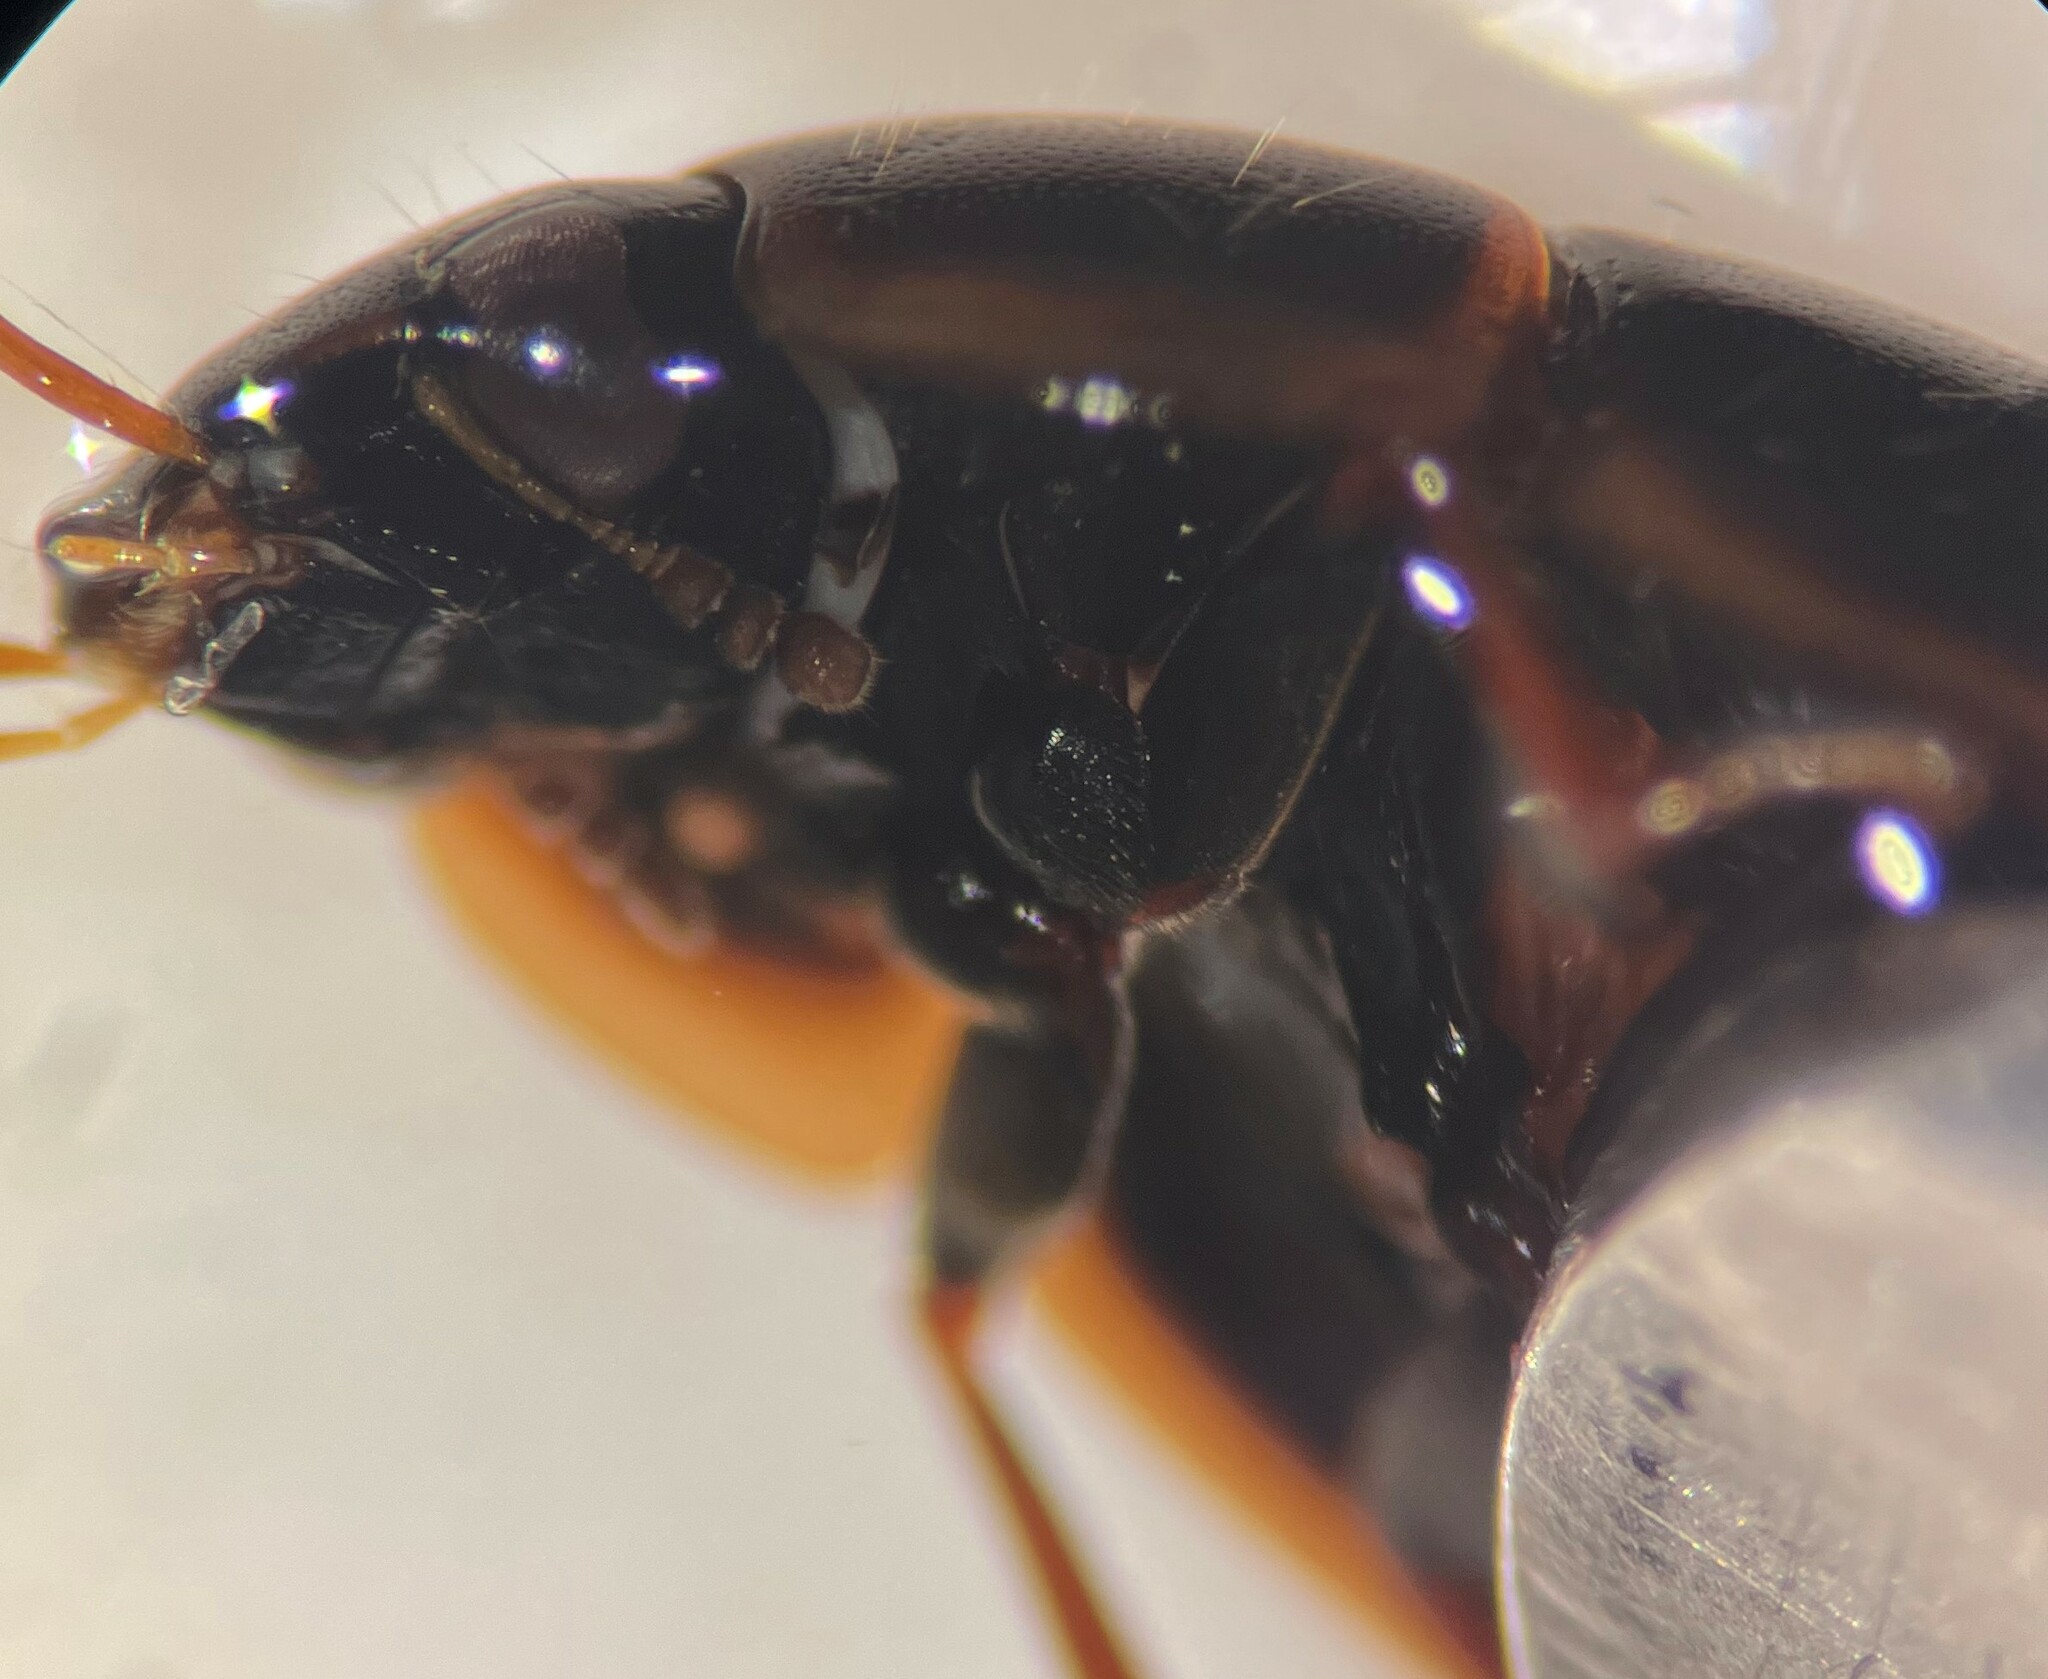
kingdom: Animalia
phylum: Arthropoda
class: Insecta
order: Coleoptera
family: Hydrophilidae
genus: Enochrus
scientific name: Enochrus fimbriatus
